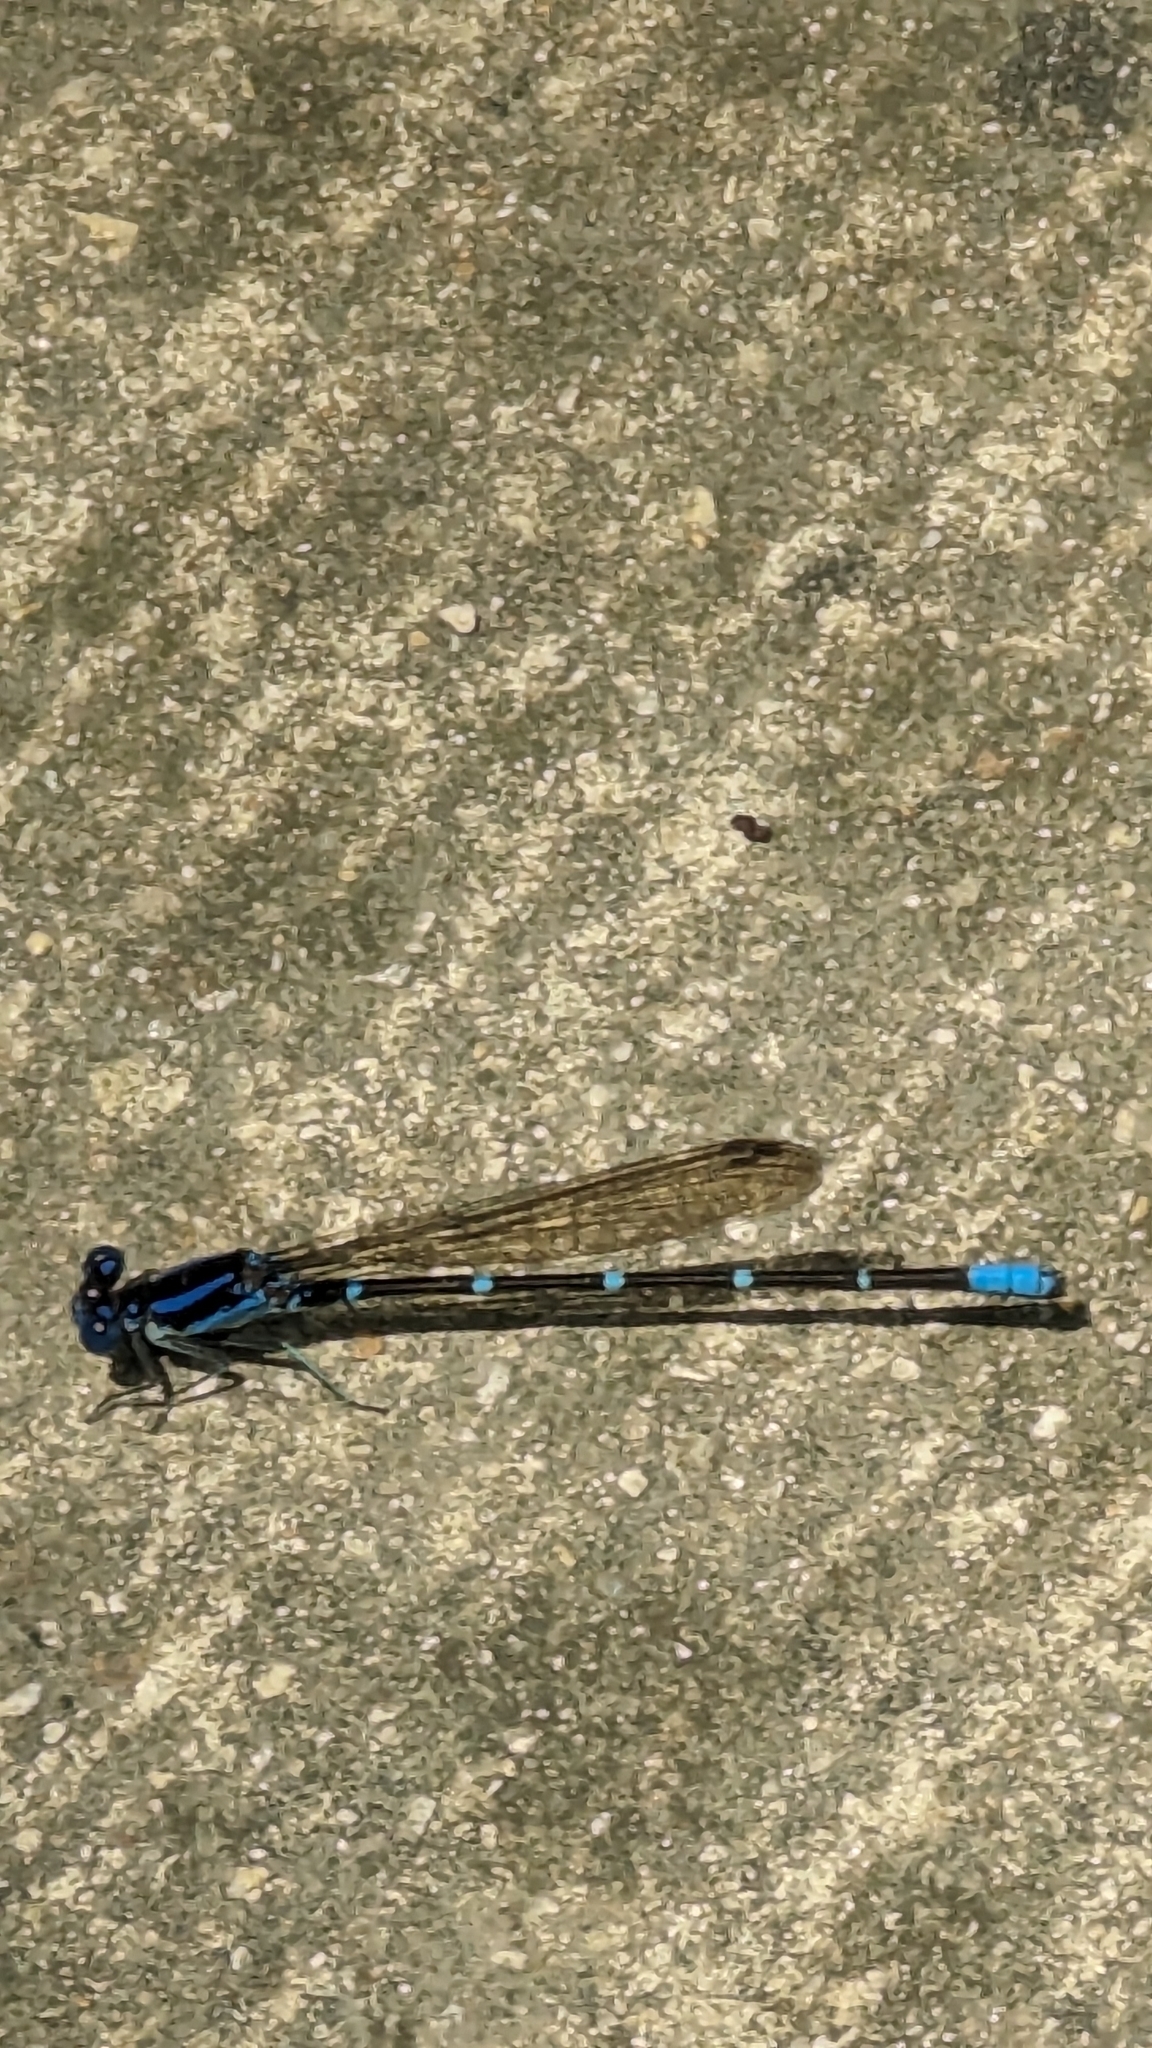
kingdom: Animalia
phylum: Arthropoda
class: Insecta
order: Odonata
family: Coenagrionidae
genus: Argia
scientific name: Argia sedula
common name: Blue-ringed dancer
